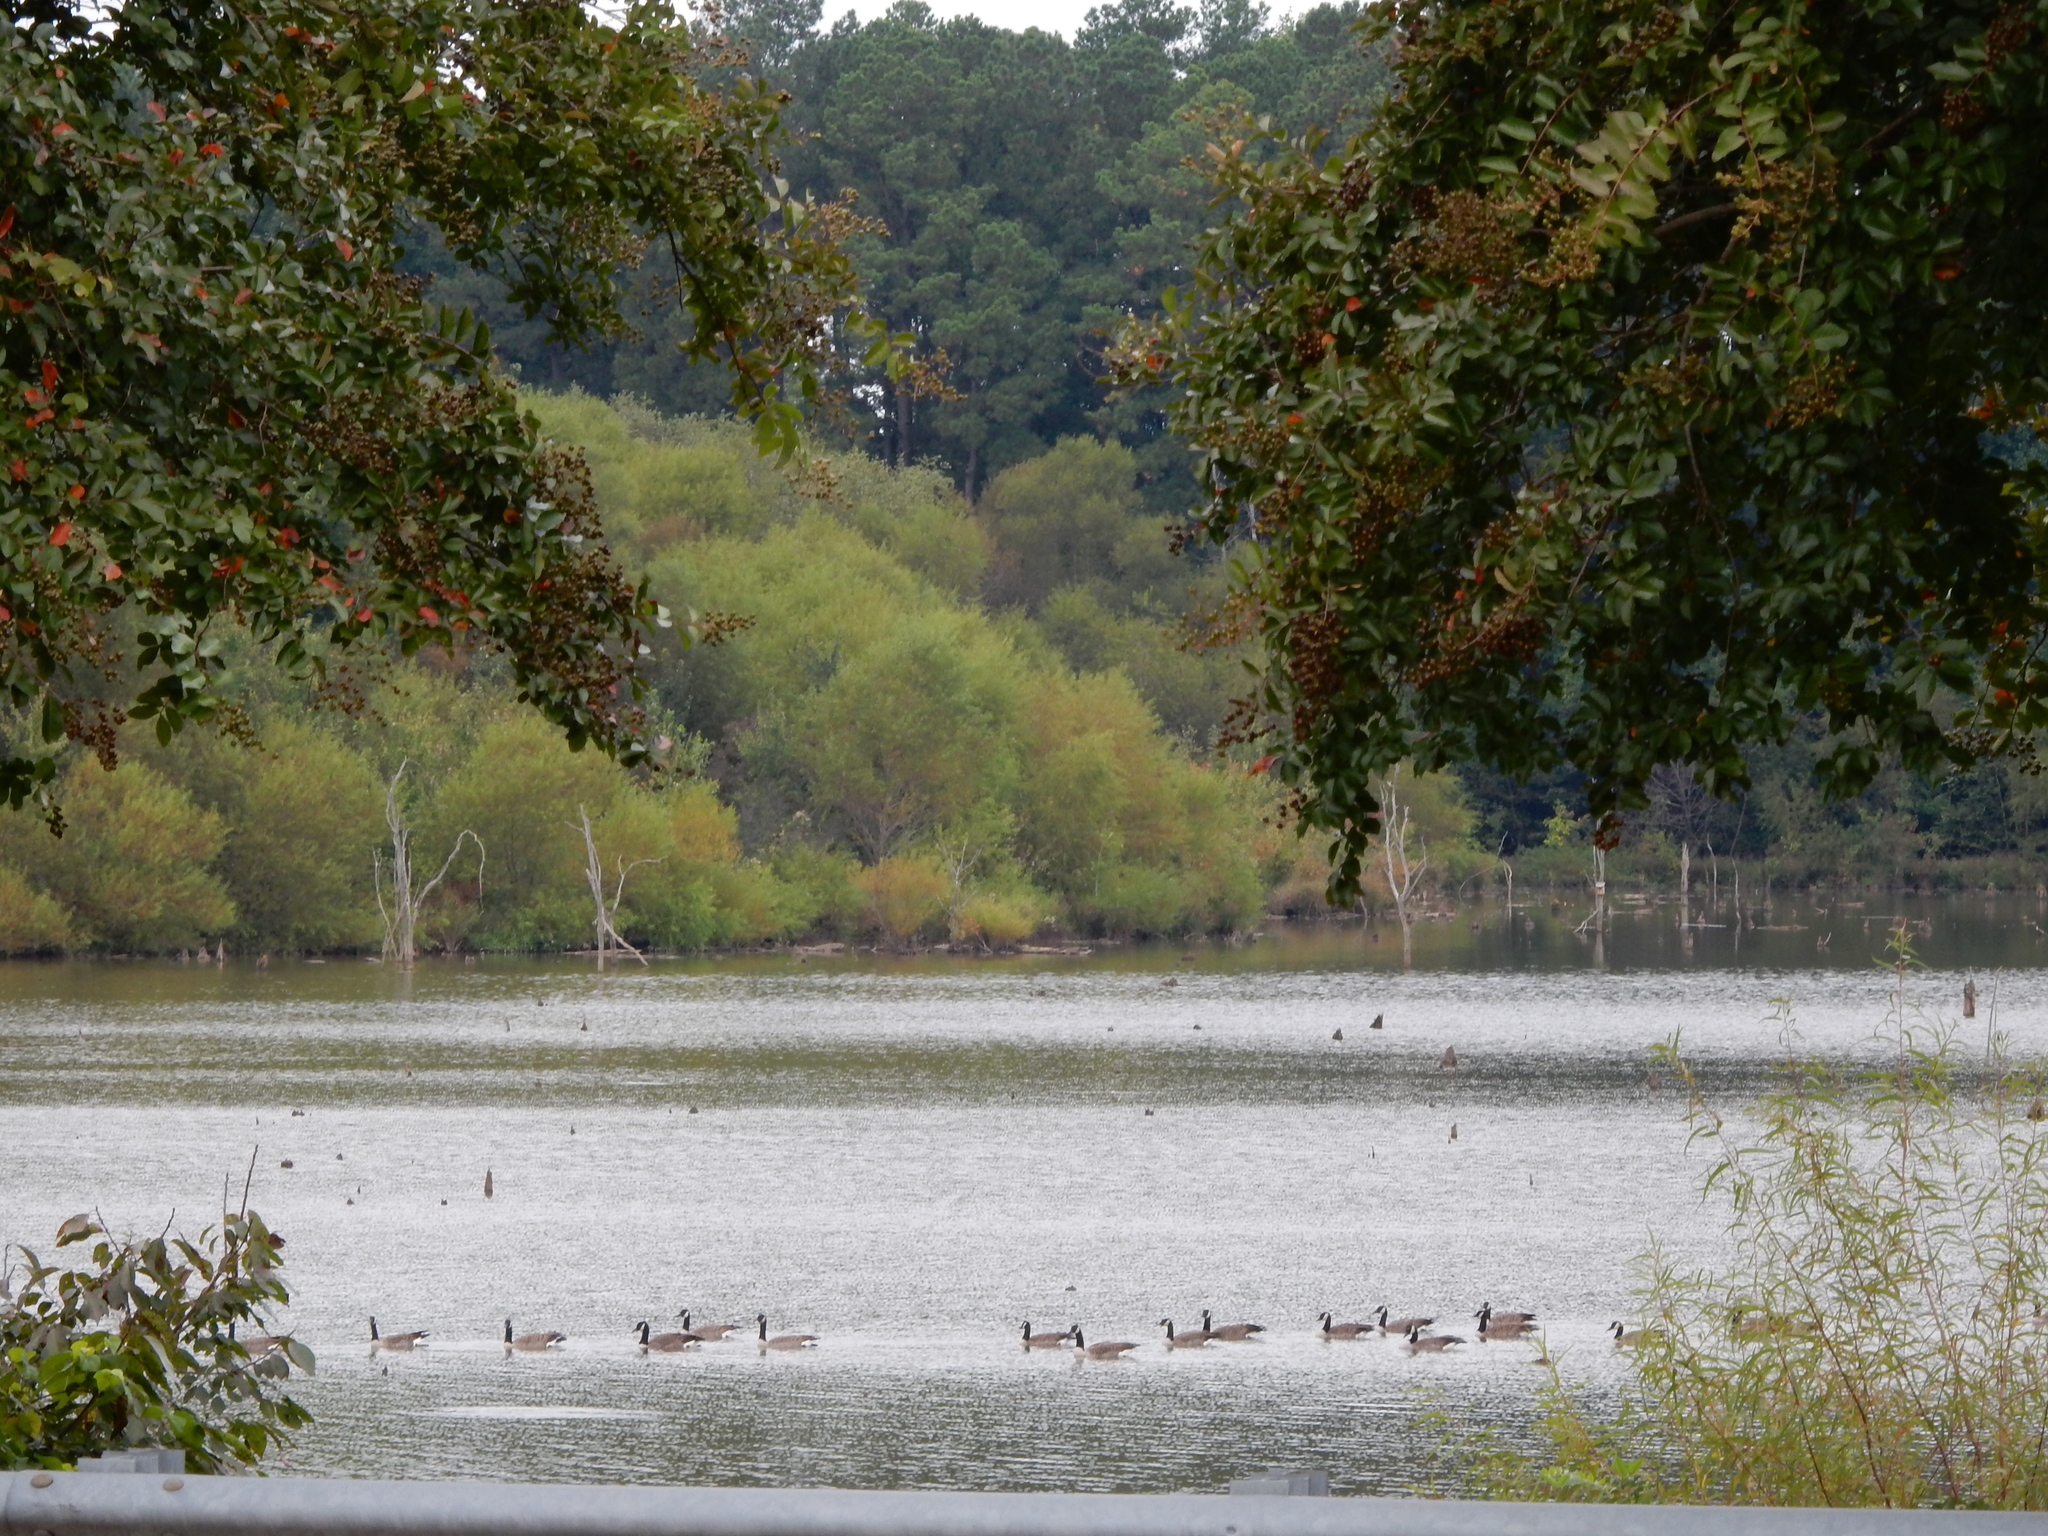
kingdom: Animalia
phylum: Chordata
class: Aves
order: Anseriformes
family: Anatidae
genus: Branta
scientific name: Branta canadensis
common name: Canada goose
